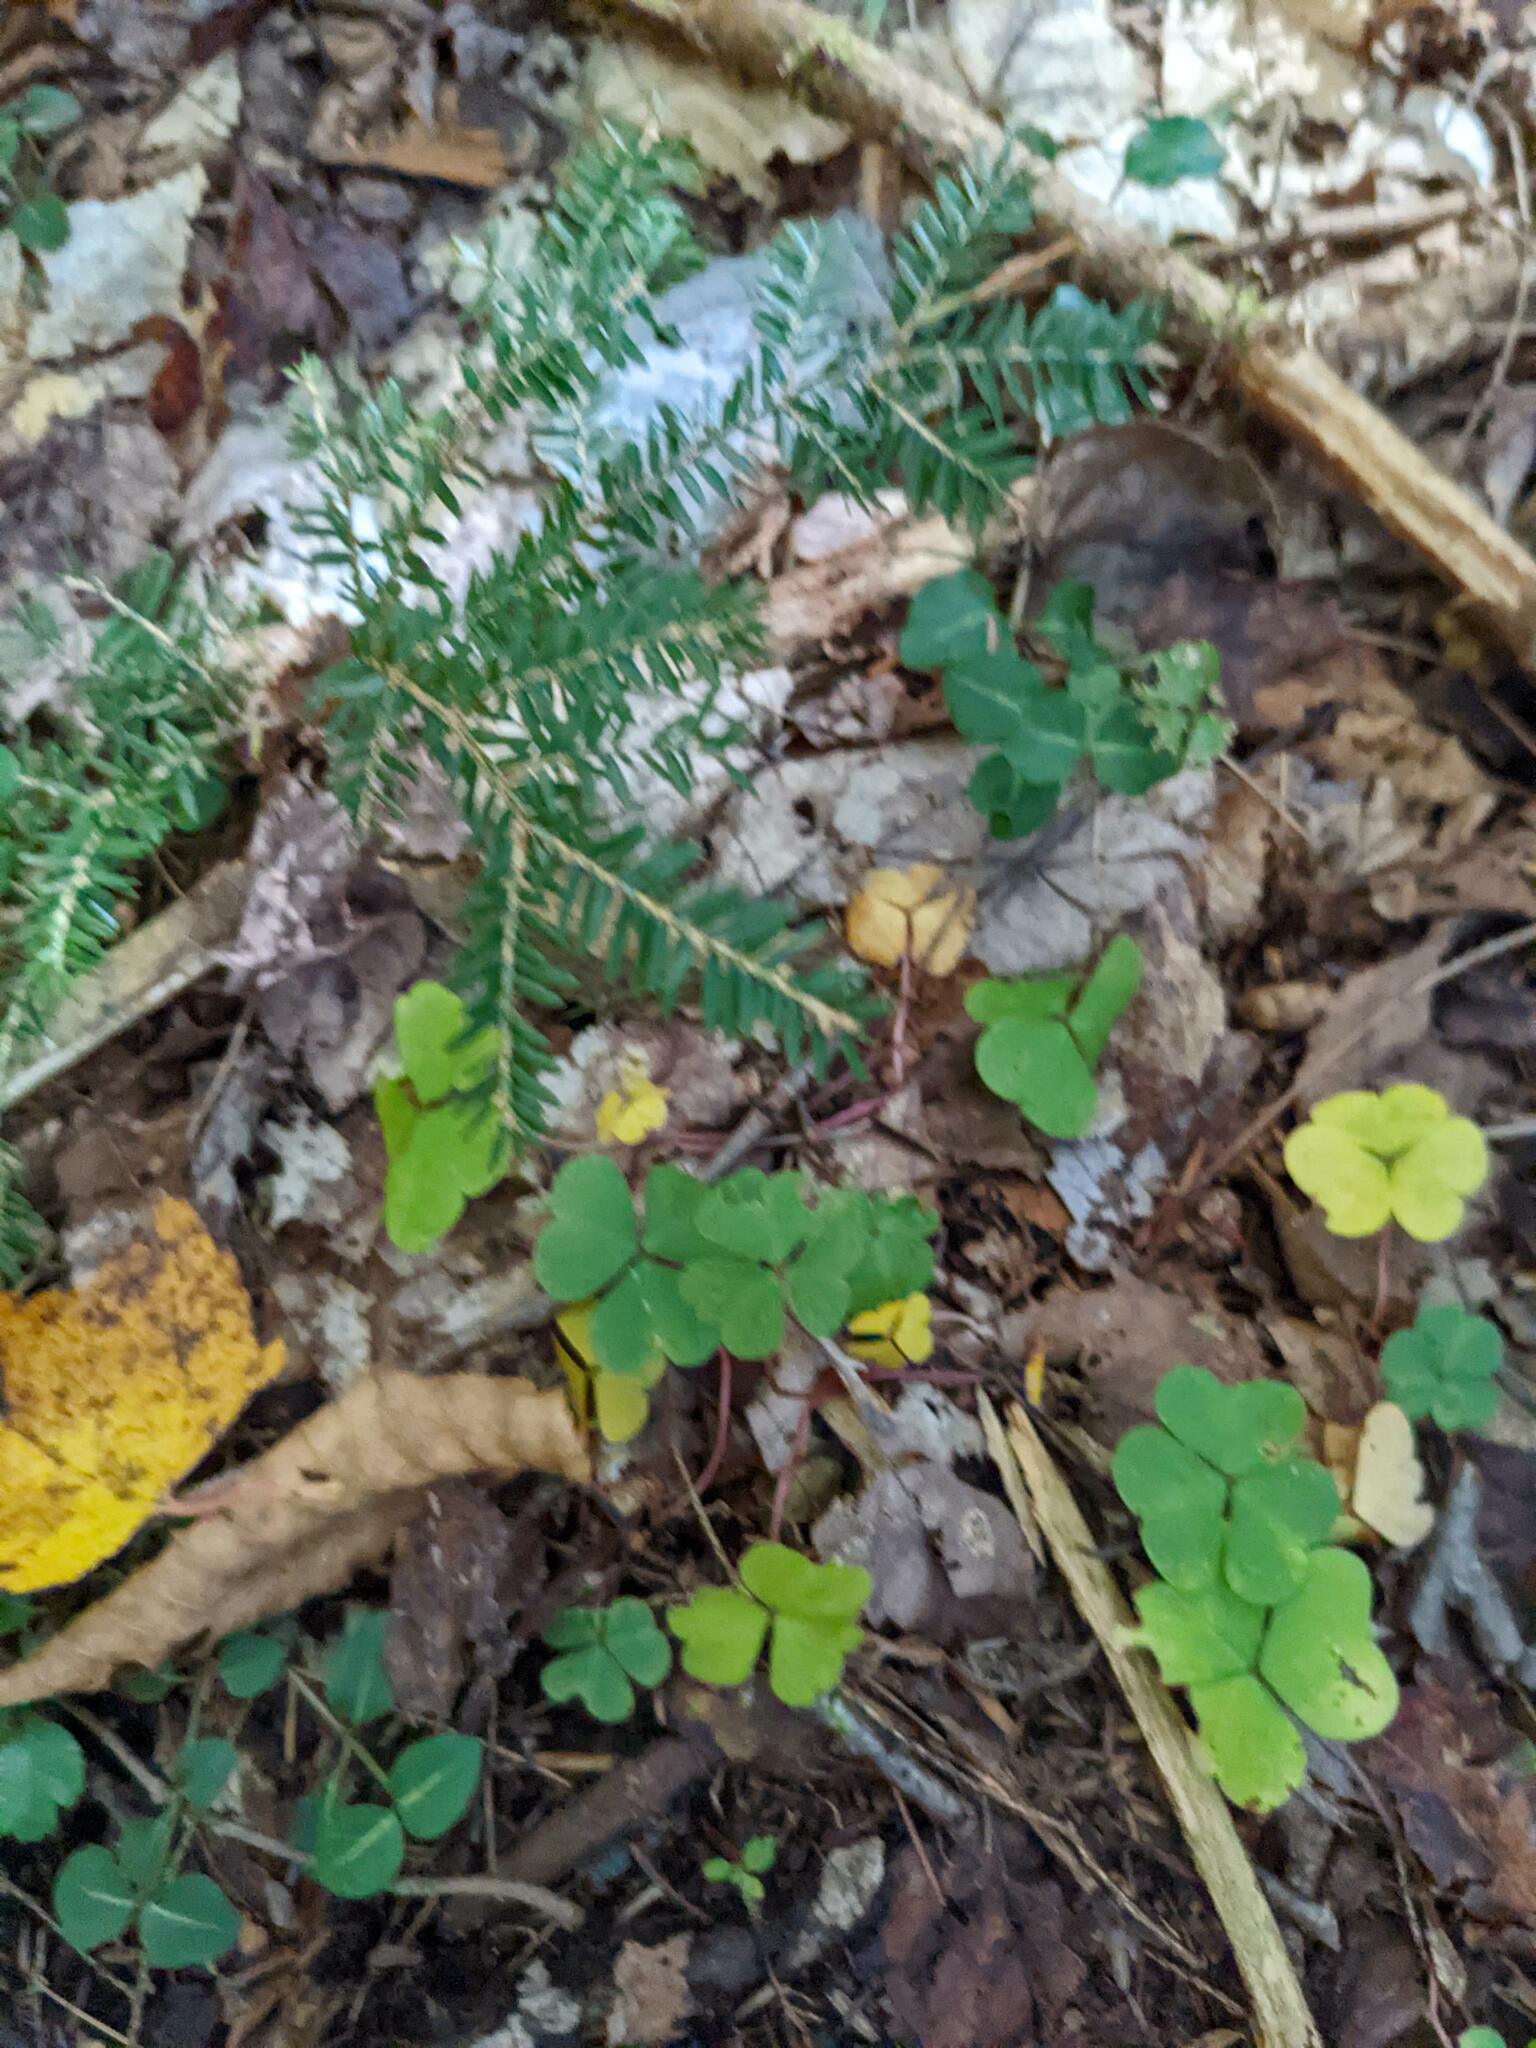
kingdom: Plantae
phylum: Tracheophyta
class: Pinopsida
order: Pinales
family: Pinaceae
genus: Tsuga
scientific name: Tsuga canadensis
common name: Eastern hemlock
